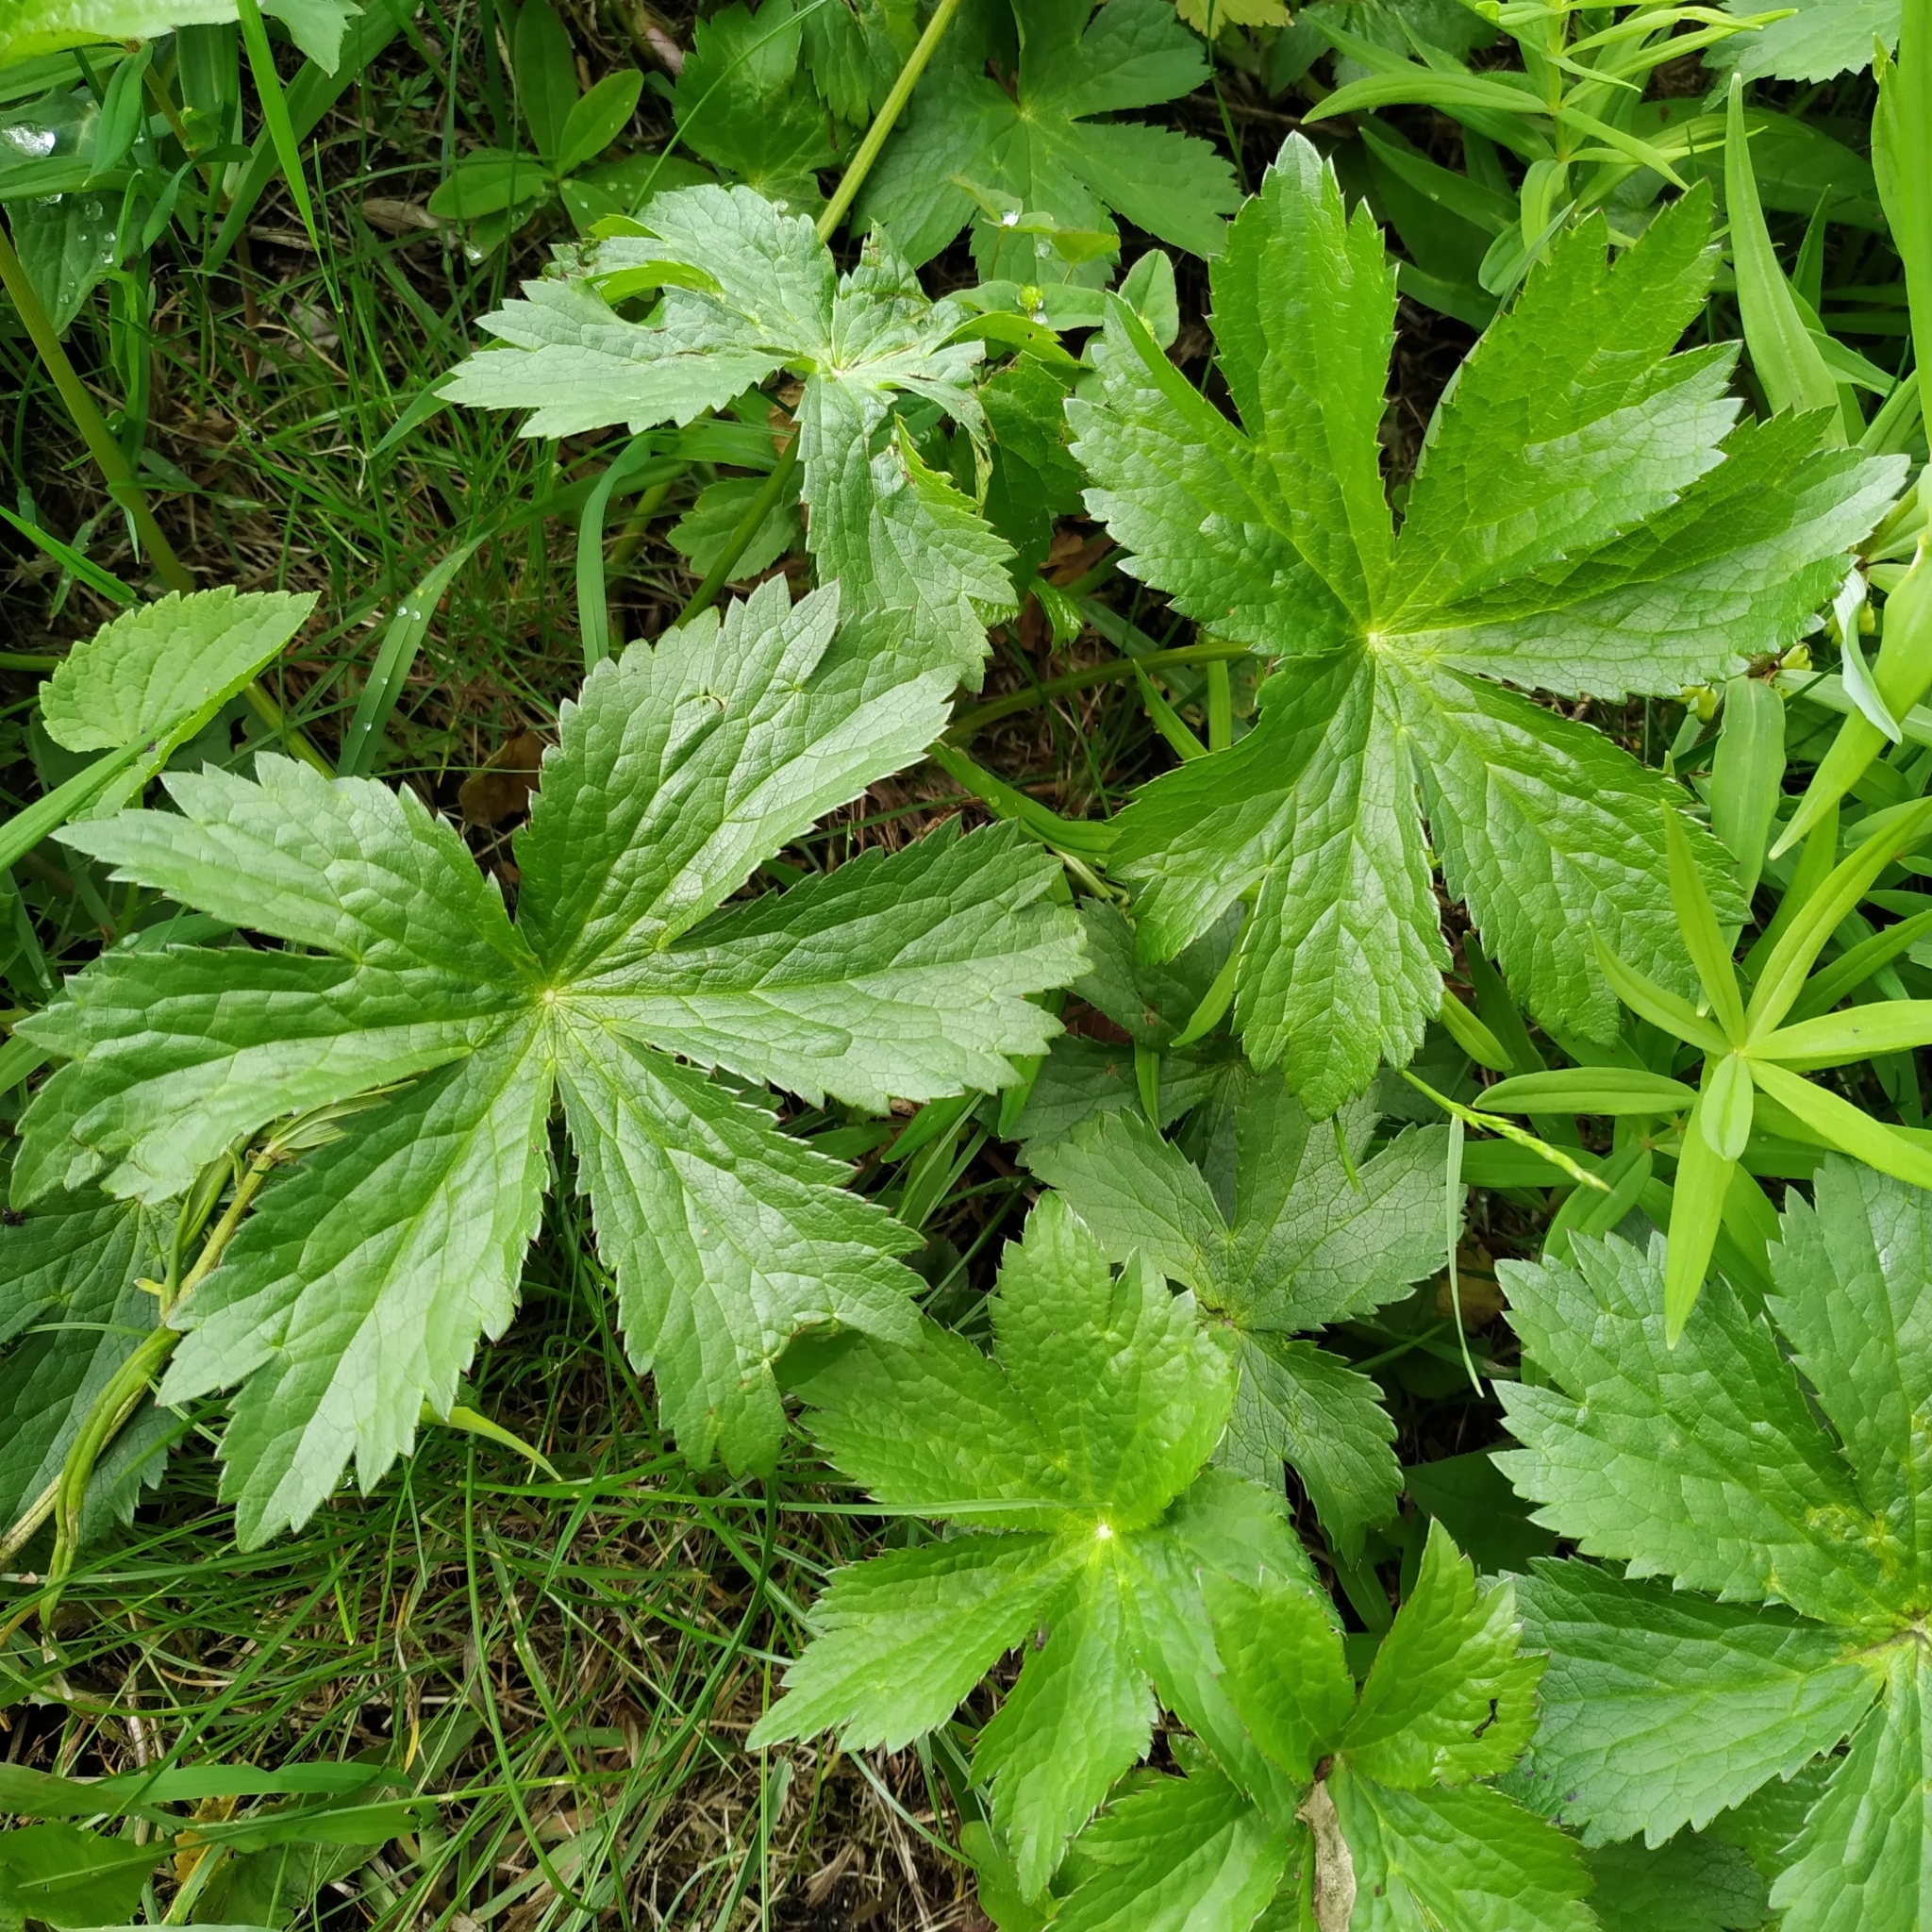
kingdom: Plantae
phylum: Tracheophyta
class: Magnoliopsida
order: Apiales
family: Apiaceae
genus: Astrantia
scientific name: Astrantia major
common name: Greater masterwort
